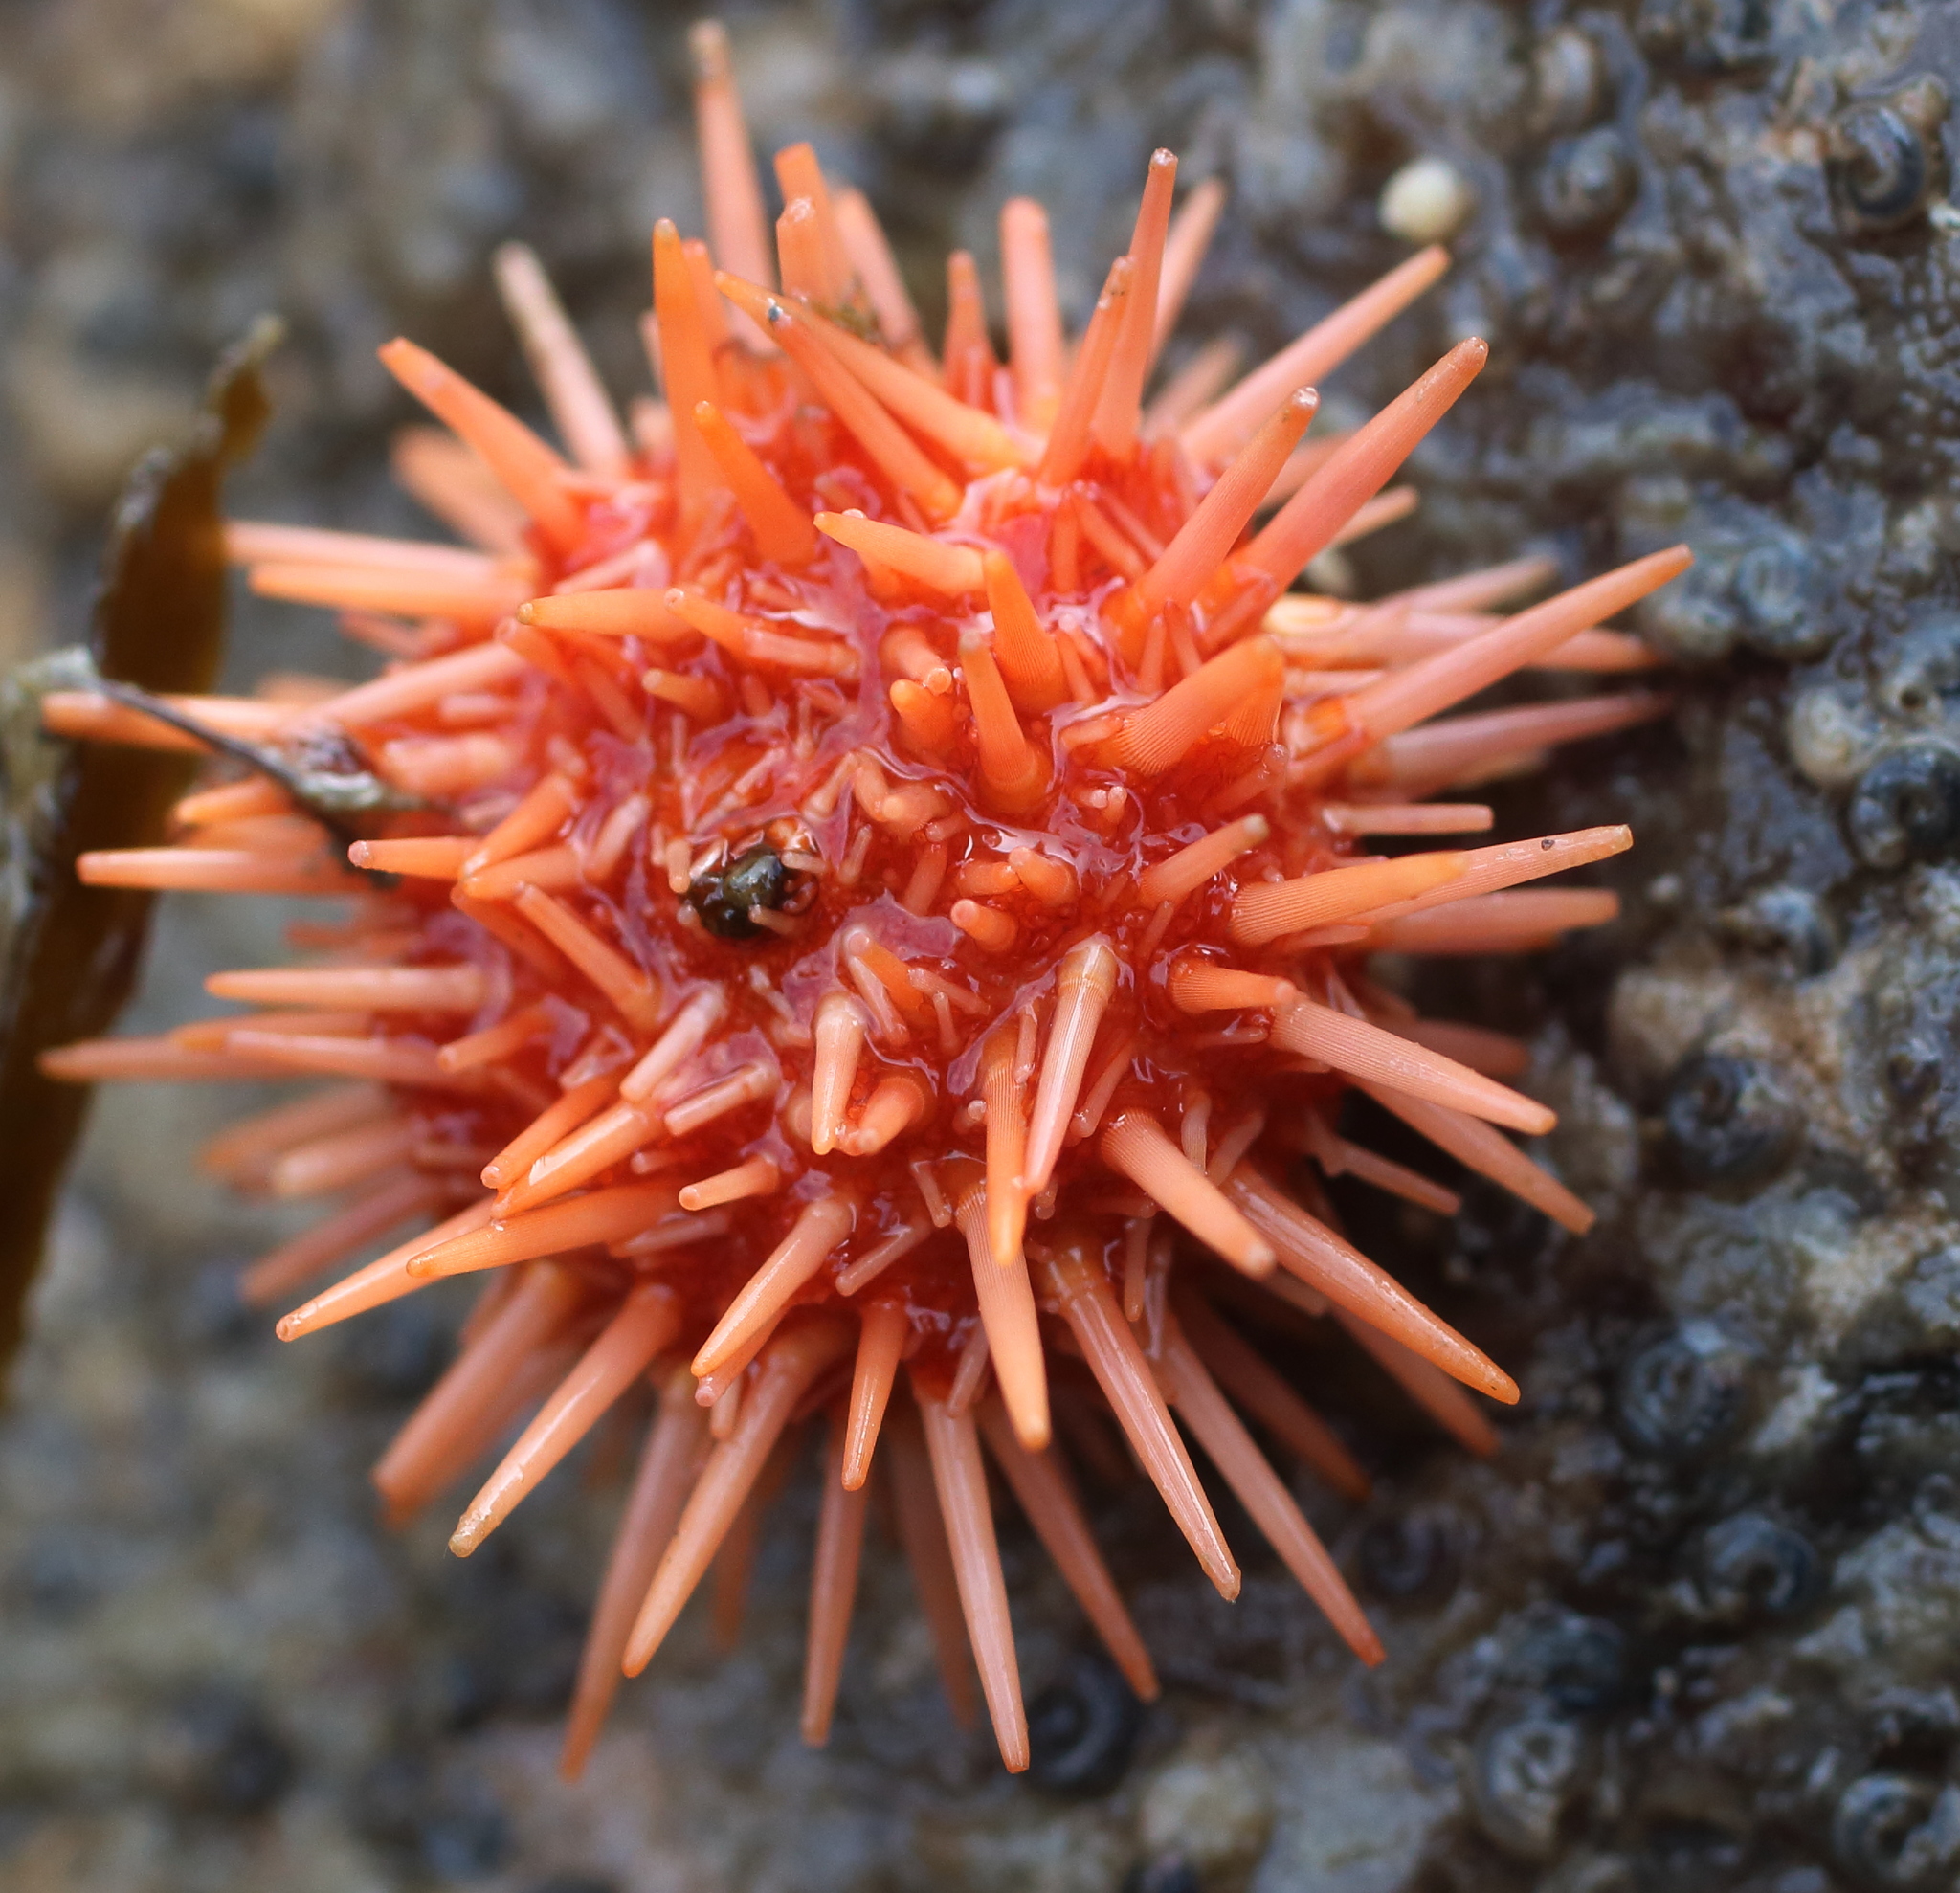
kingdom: Animalia
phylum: Echinodermata
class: Echinoidea
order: Camarodonta
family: Strongylocentrotidae
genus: Mesocentrotus
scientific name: Mesocentrotus franciscanus
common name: Red sea urchin
